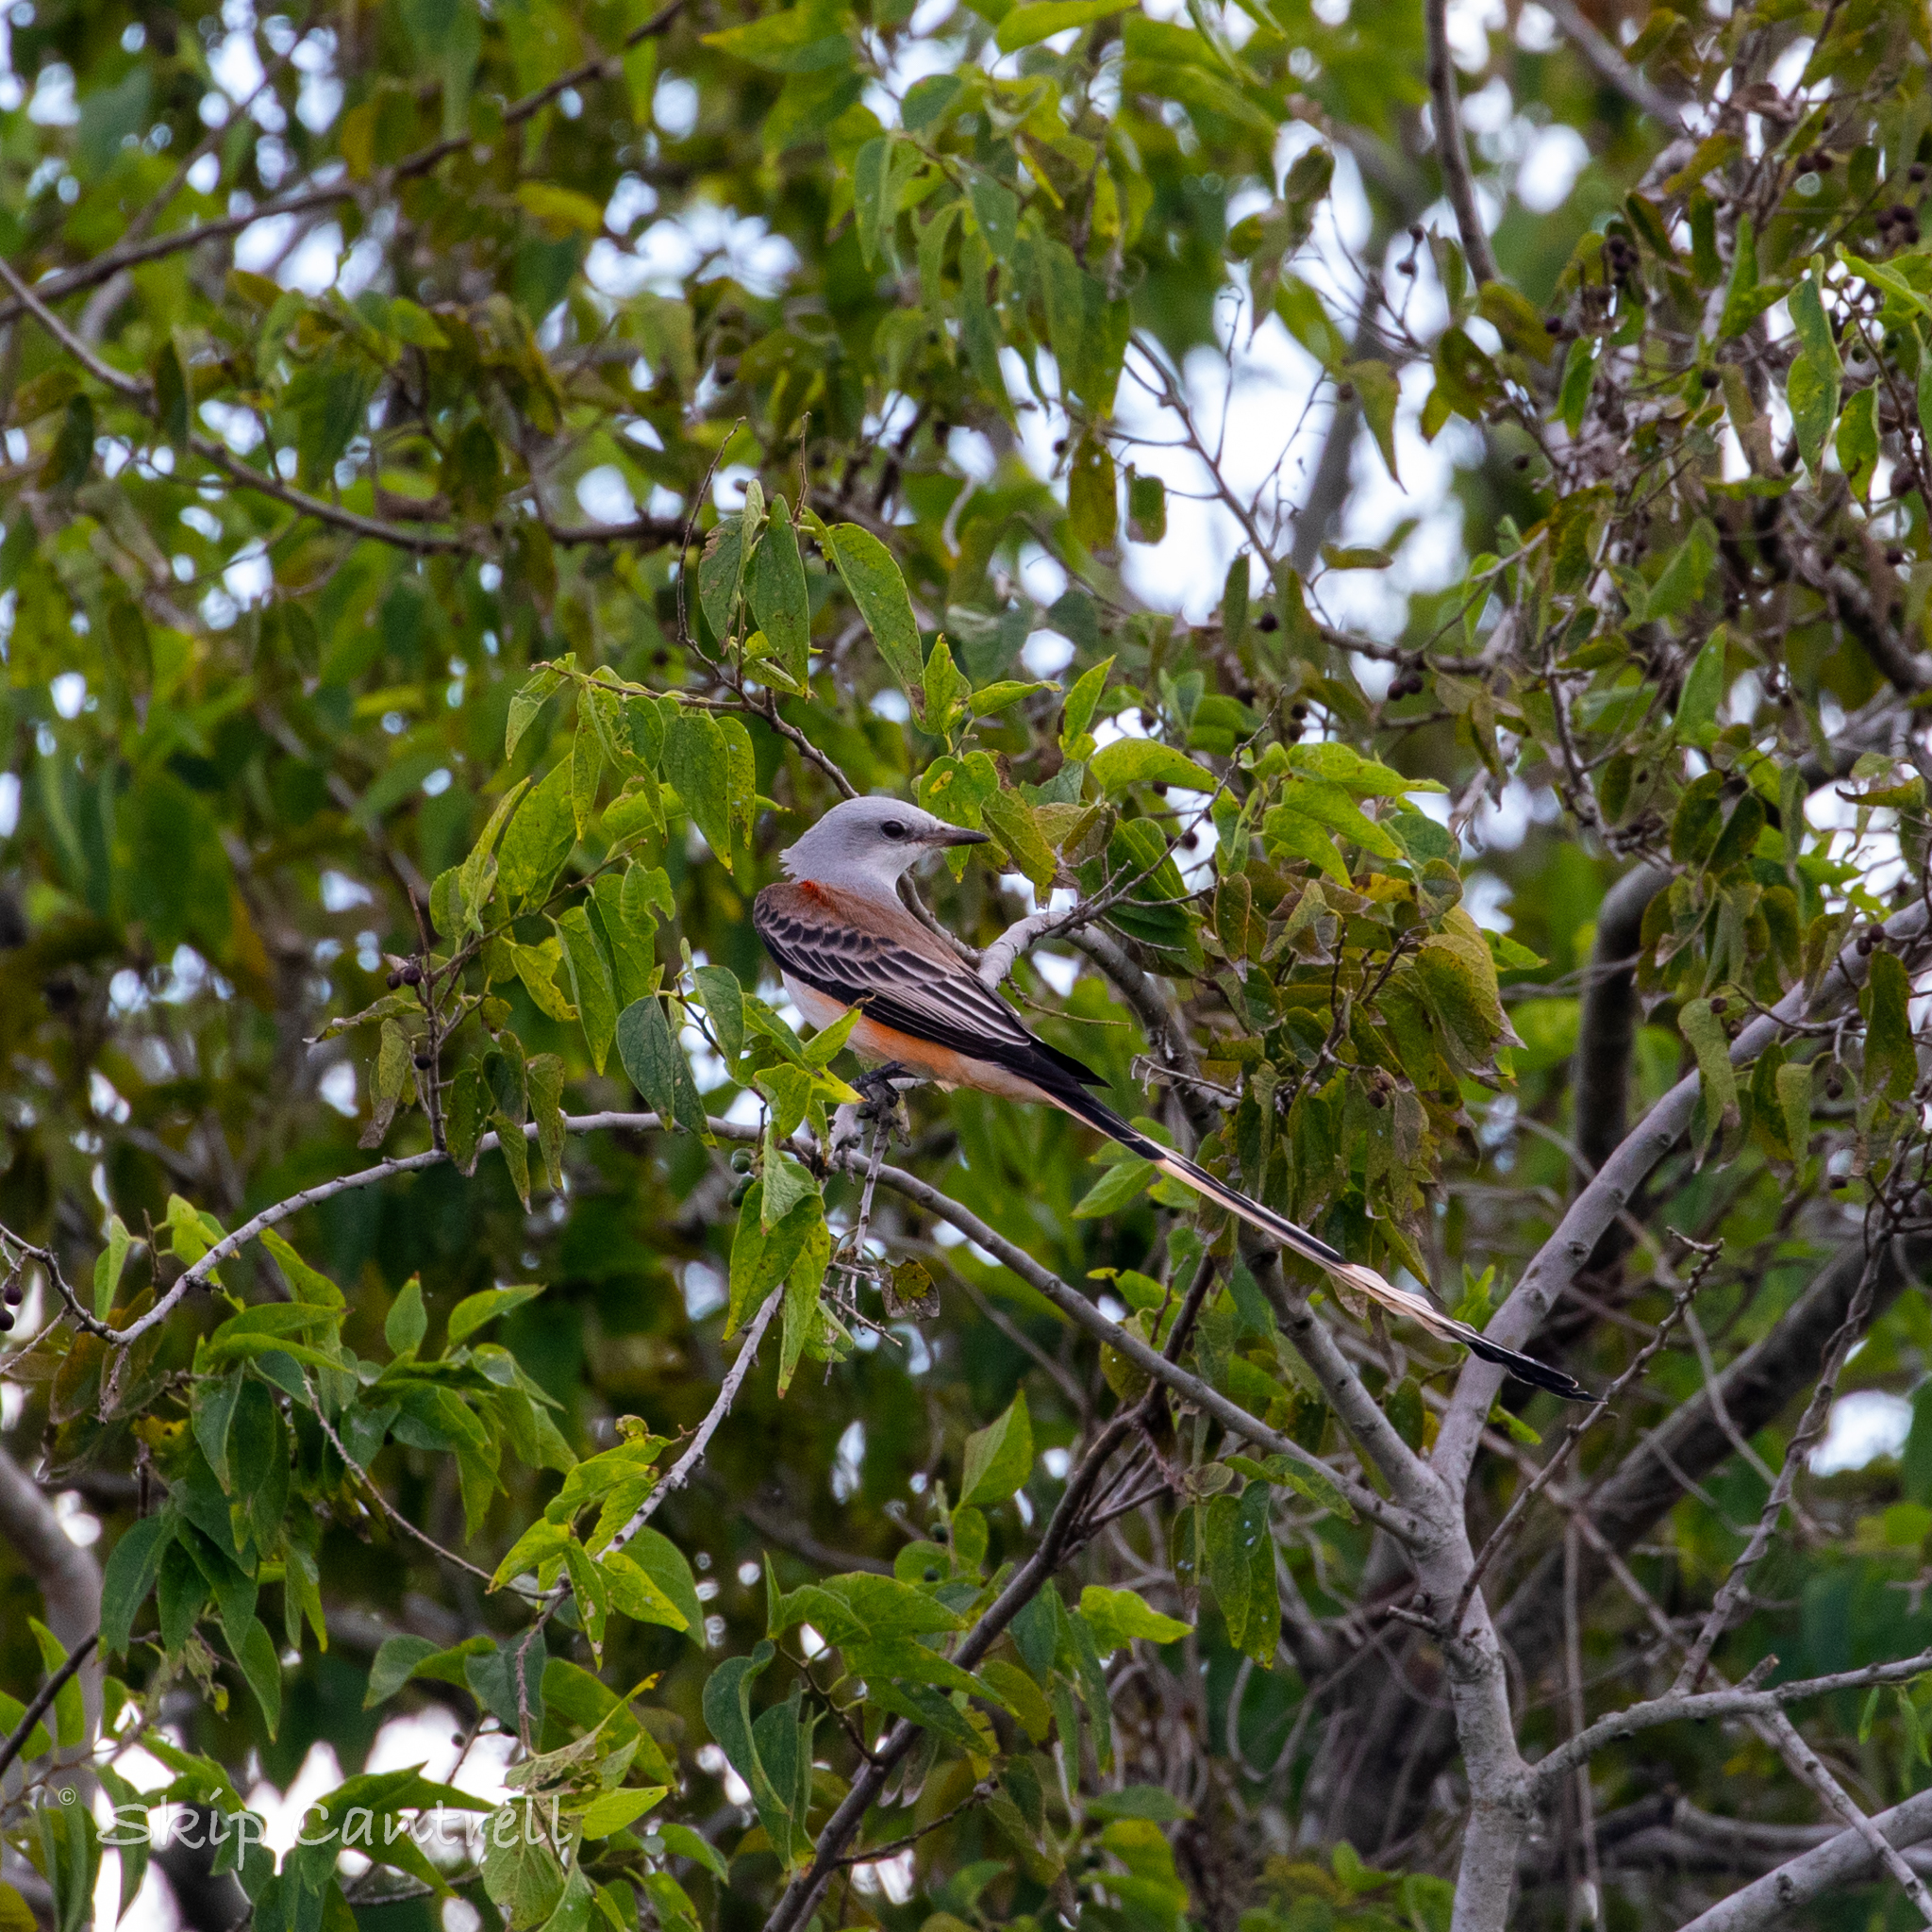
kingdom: Animalia
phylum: Chordata
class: Aves
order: Passeriformes
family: Tyrannidae
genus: Tyrannus
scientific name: Tyrannus forficatus
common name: Scissor-tailed flycatcher
